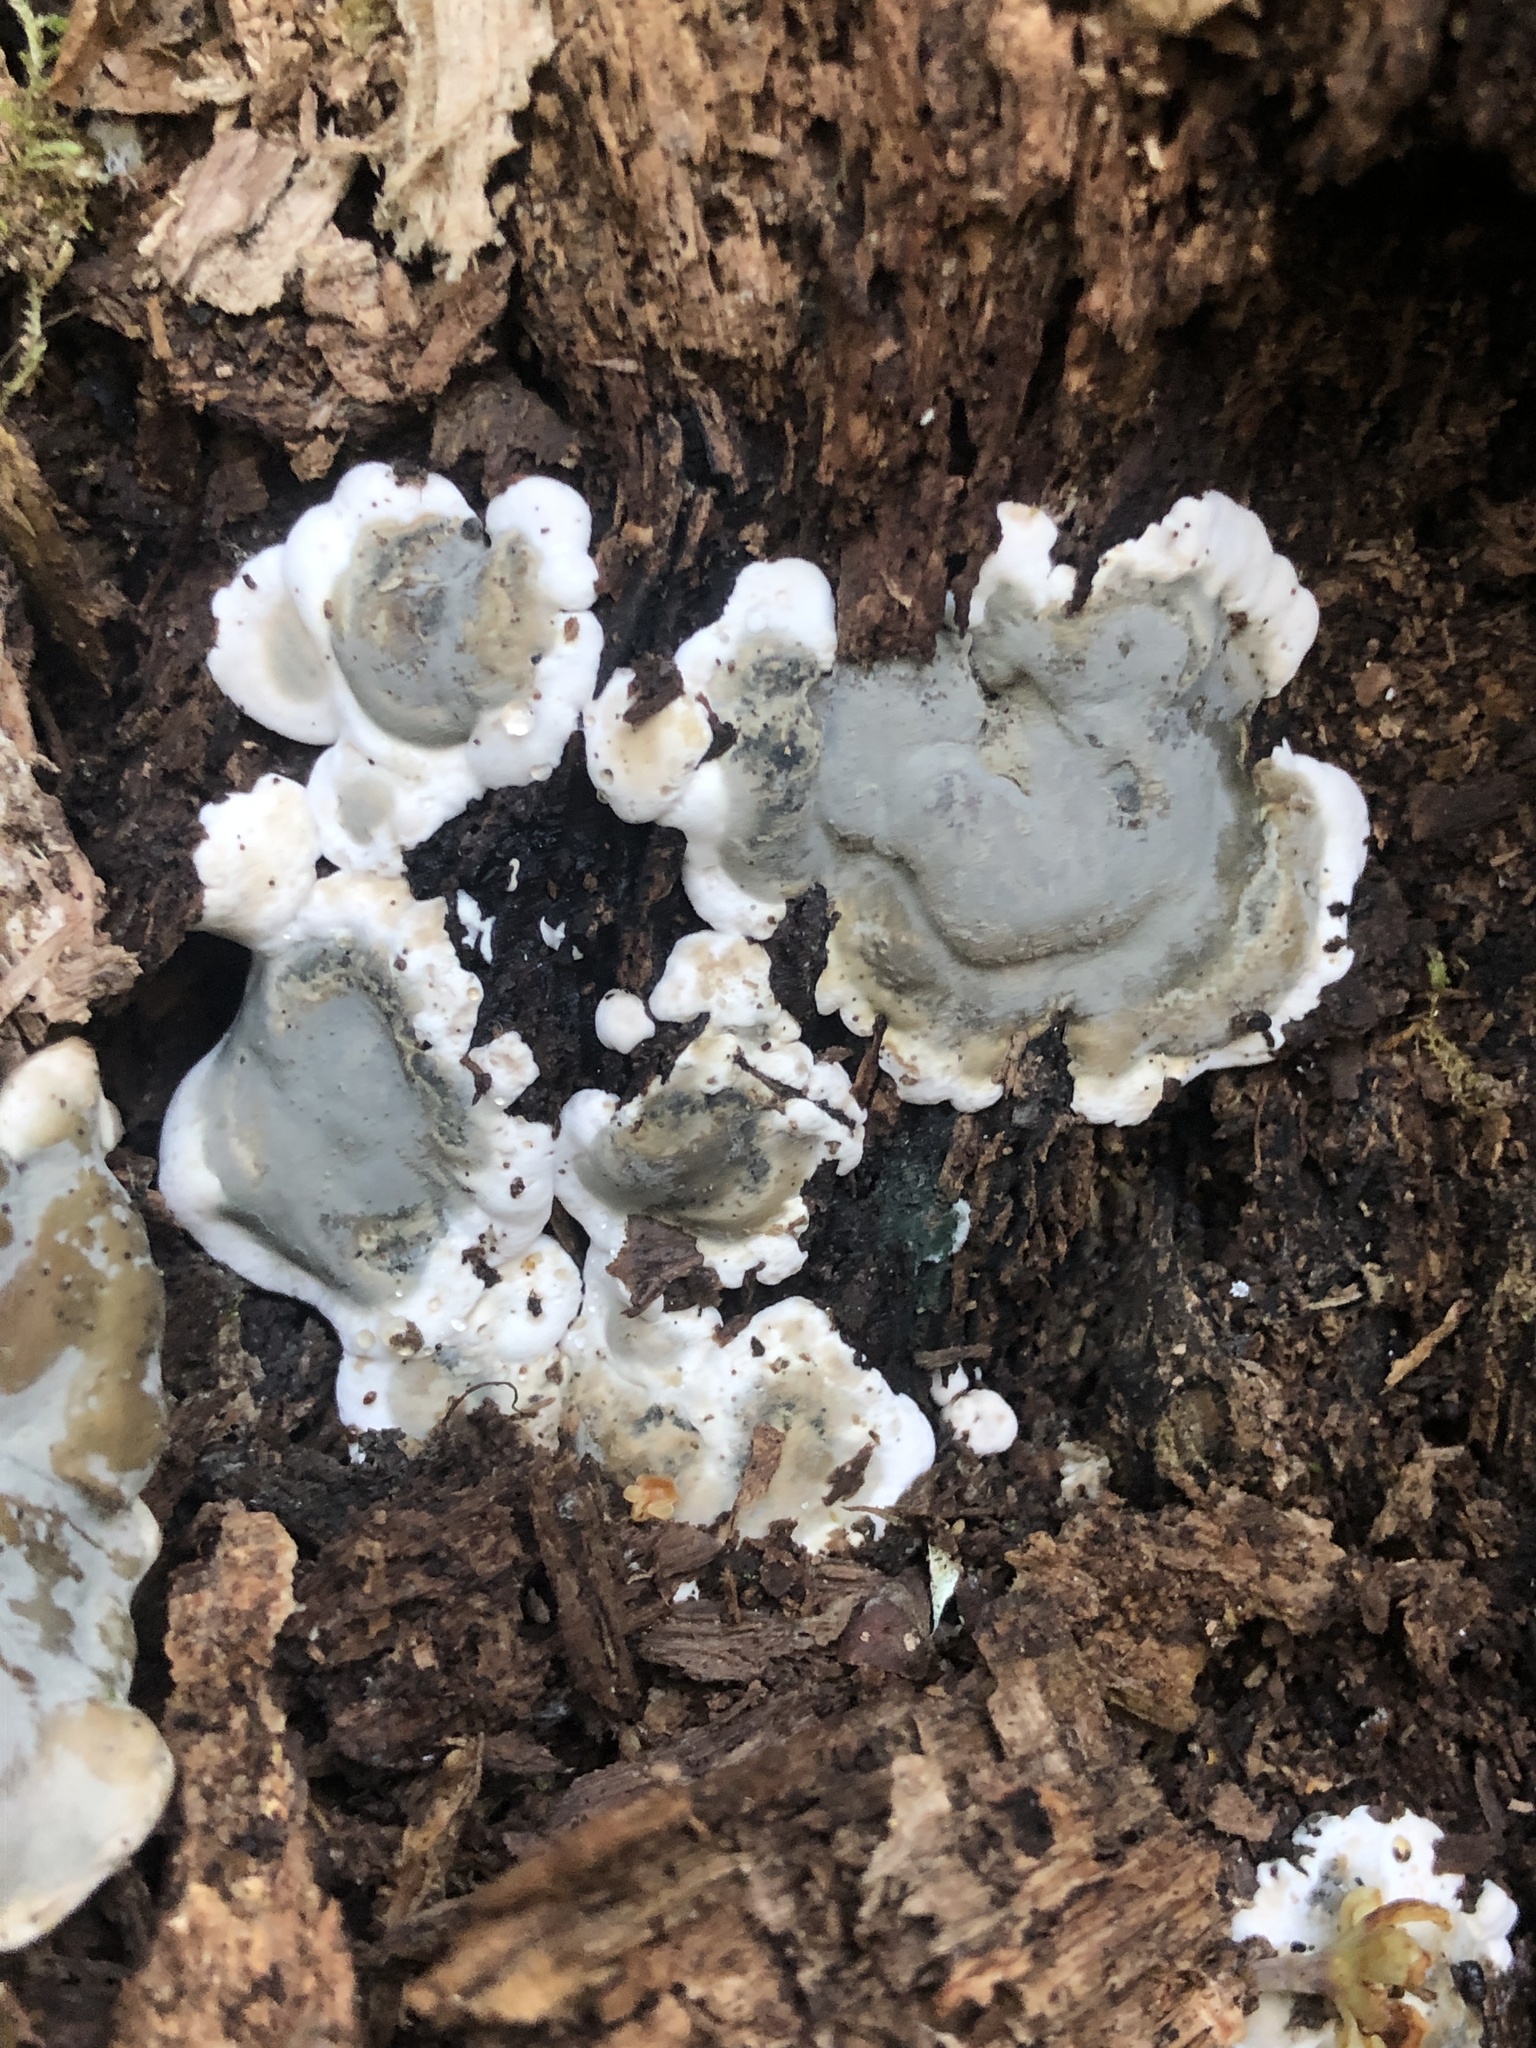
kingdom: Fungi
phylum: Ascomycota
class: Sordariomycetes
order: Xylariales
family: Xylariaceae
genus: Kretzschmaria
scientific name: Kretzschmaria deusta
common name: Brittle cinder
